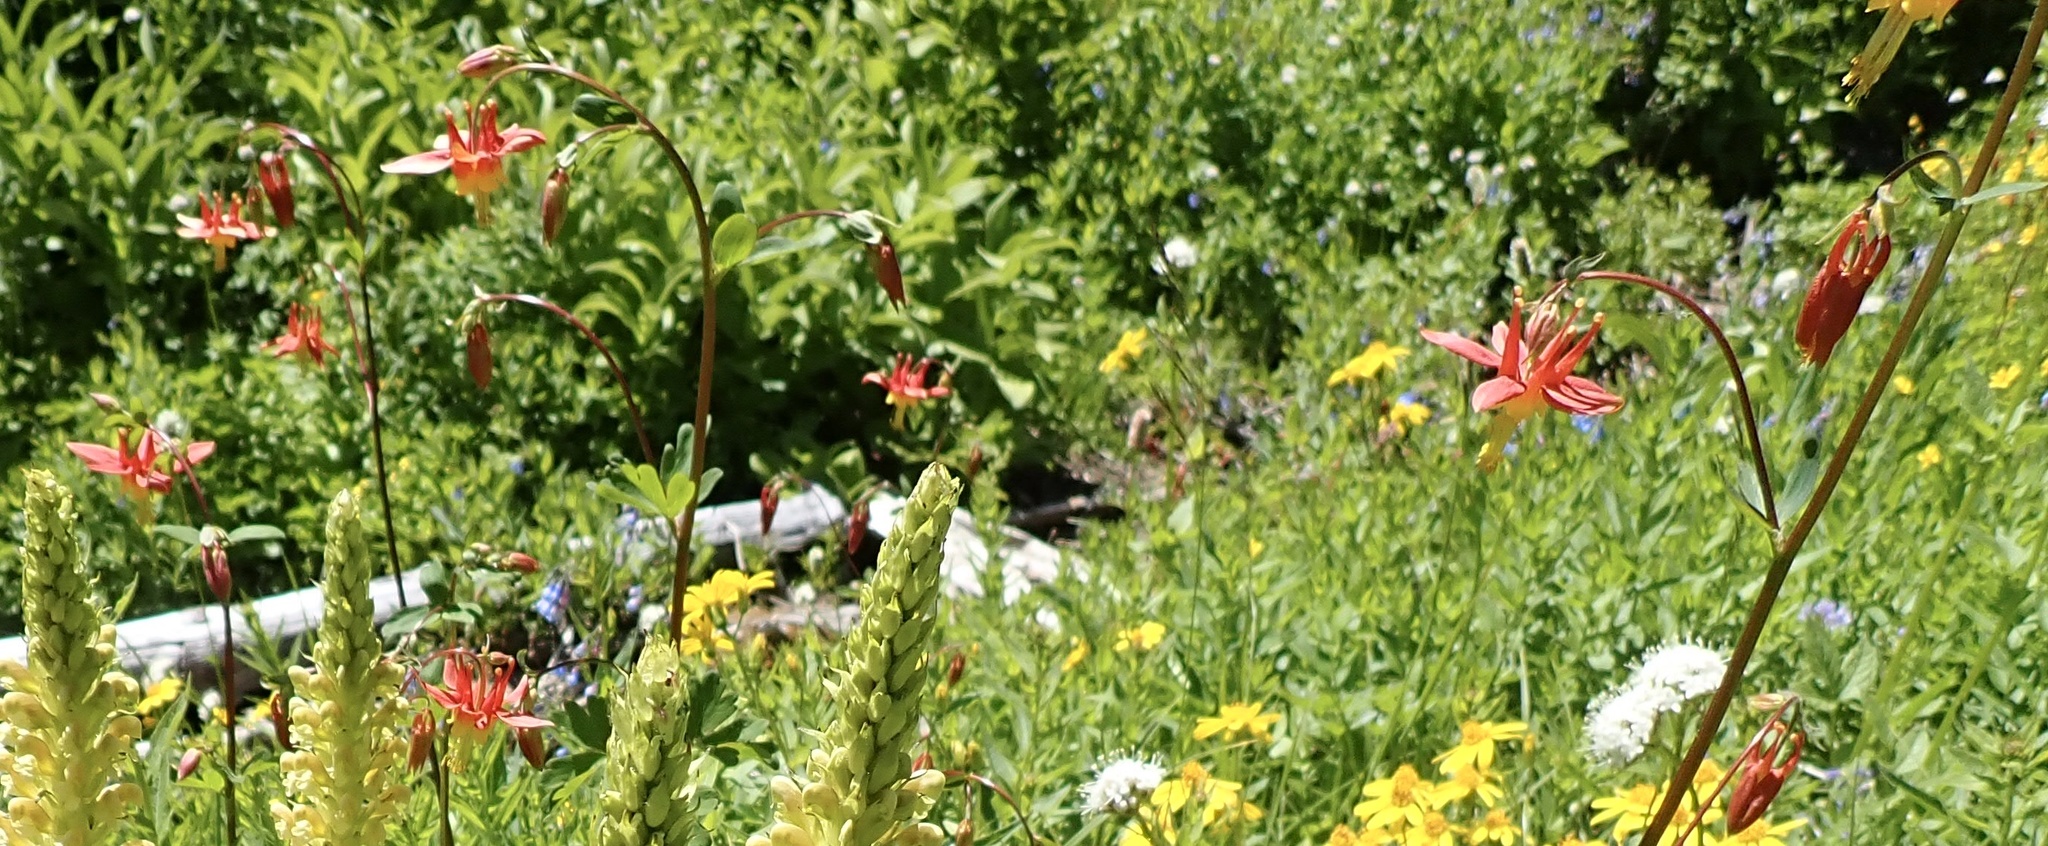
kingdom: Plantae
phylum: Tracheophyta
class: Magnoliopsida
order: Ranunculales
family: Ranunculaceae
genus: Aquilegia
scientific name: Aquilegia formosa
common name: Sitka columbine
